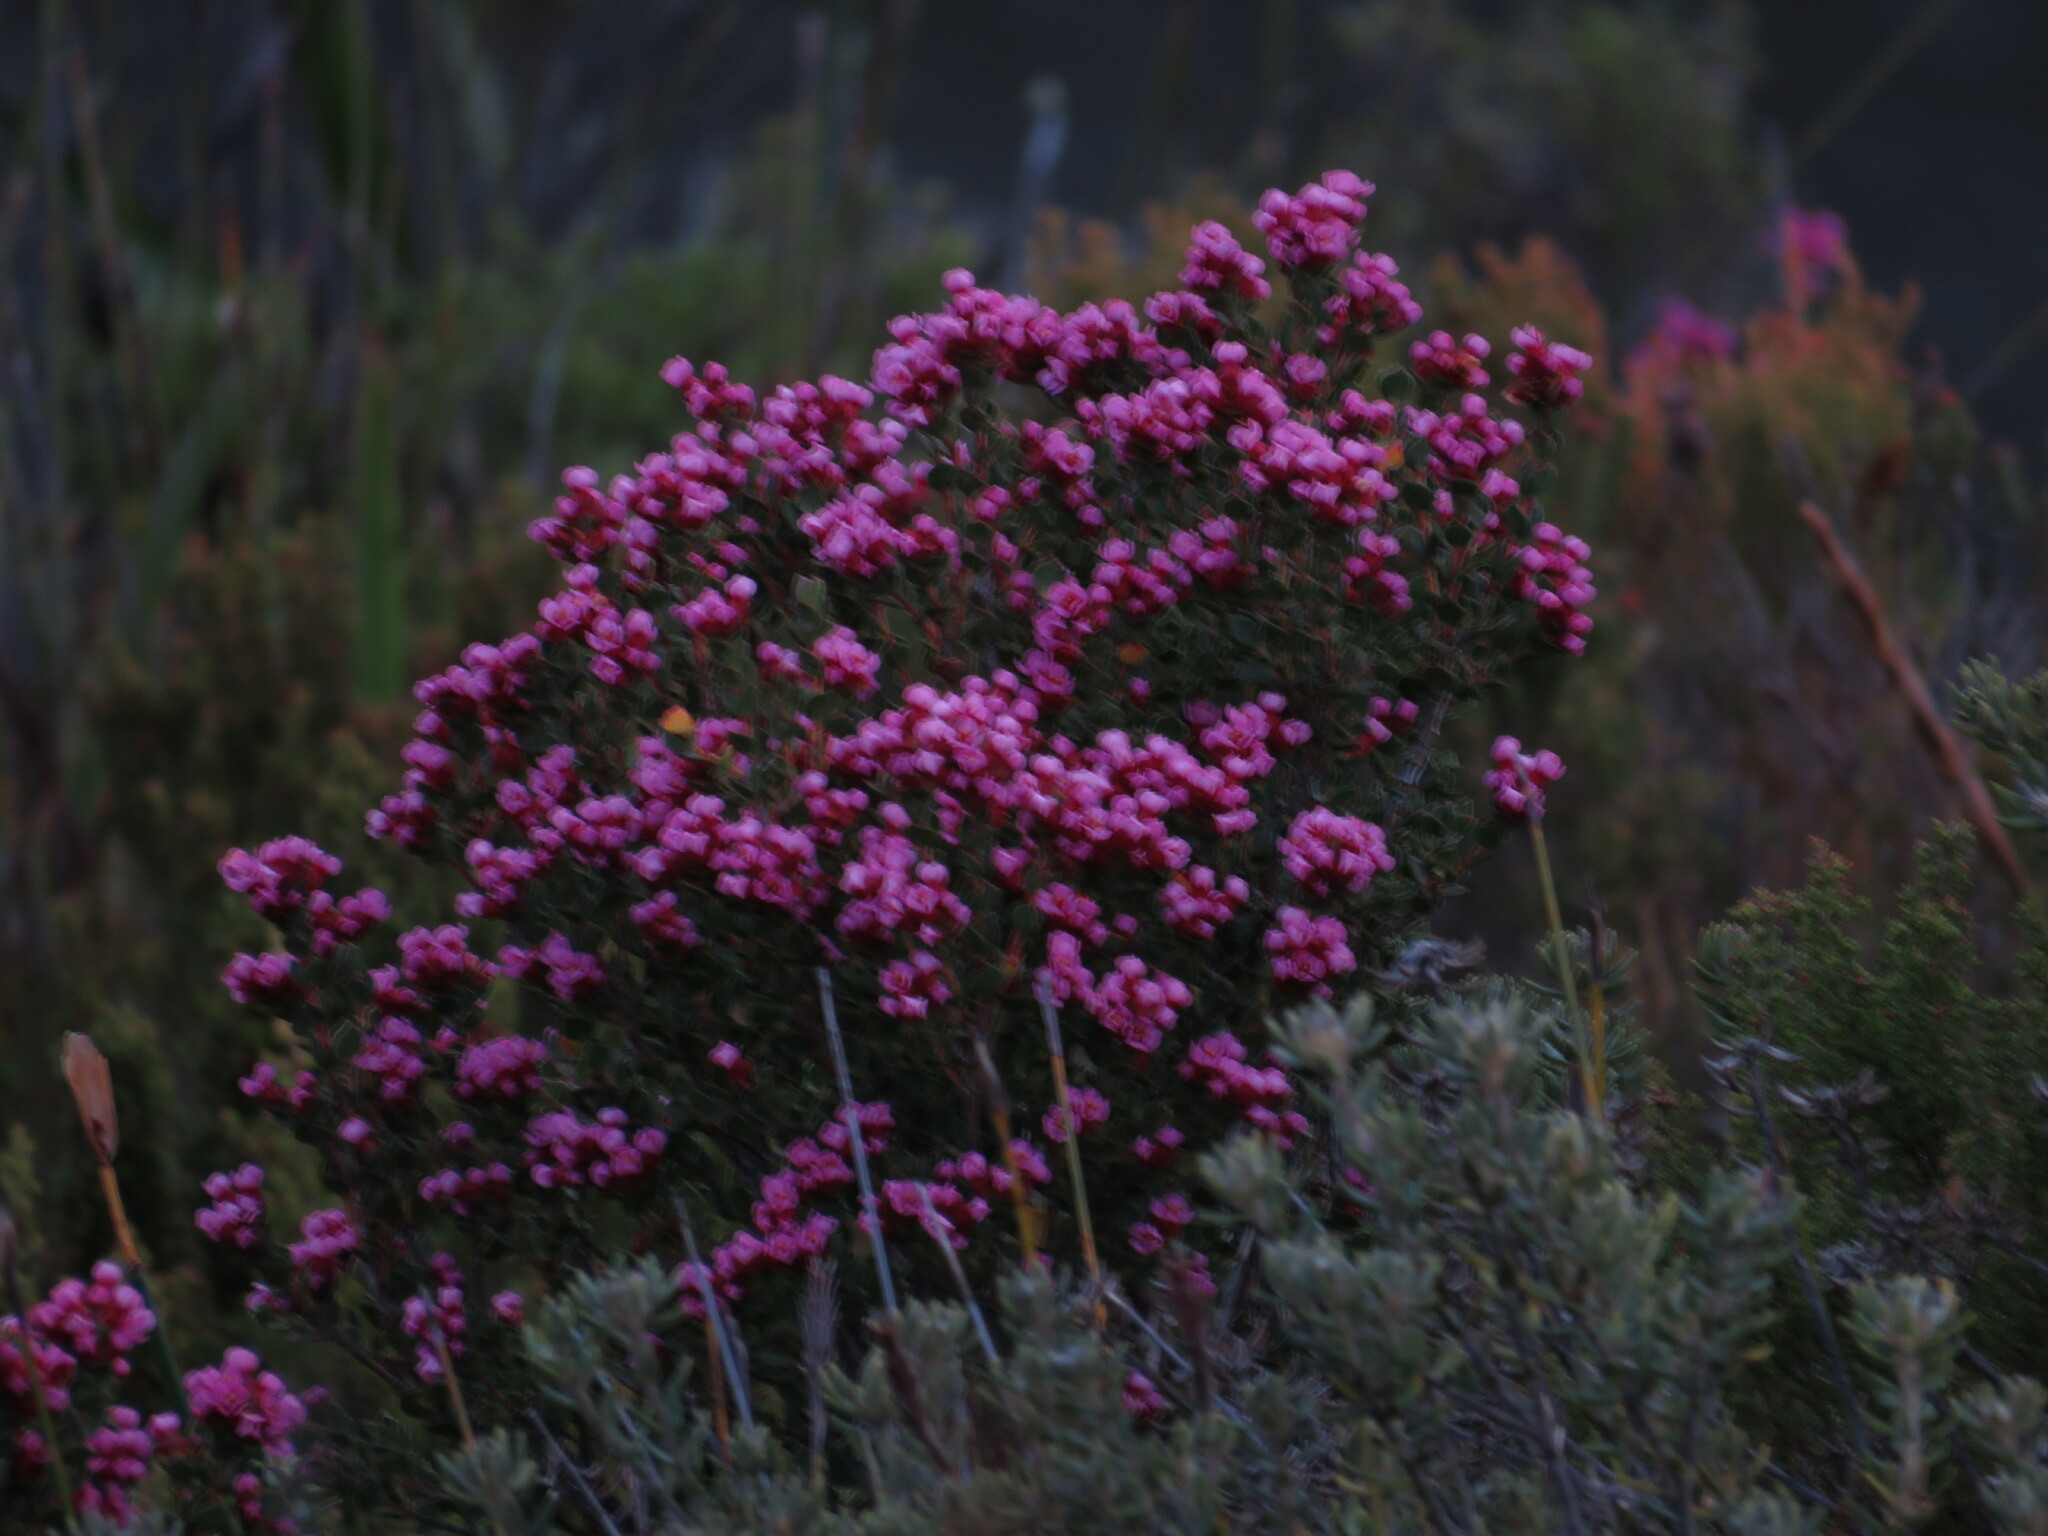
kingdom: Plantae
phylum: Tracheophyta
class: Magnoliopsida
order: Myrtales
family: Penaeaceae
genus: Brachysiphon
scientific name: Brachysiphon fucatus
